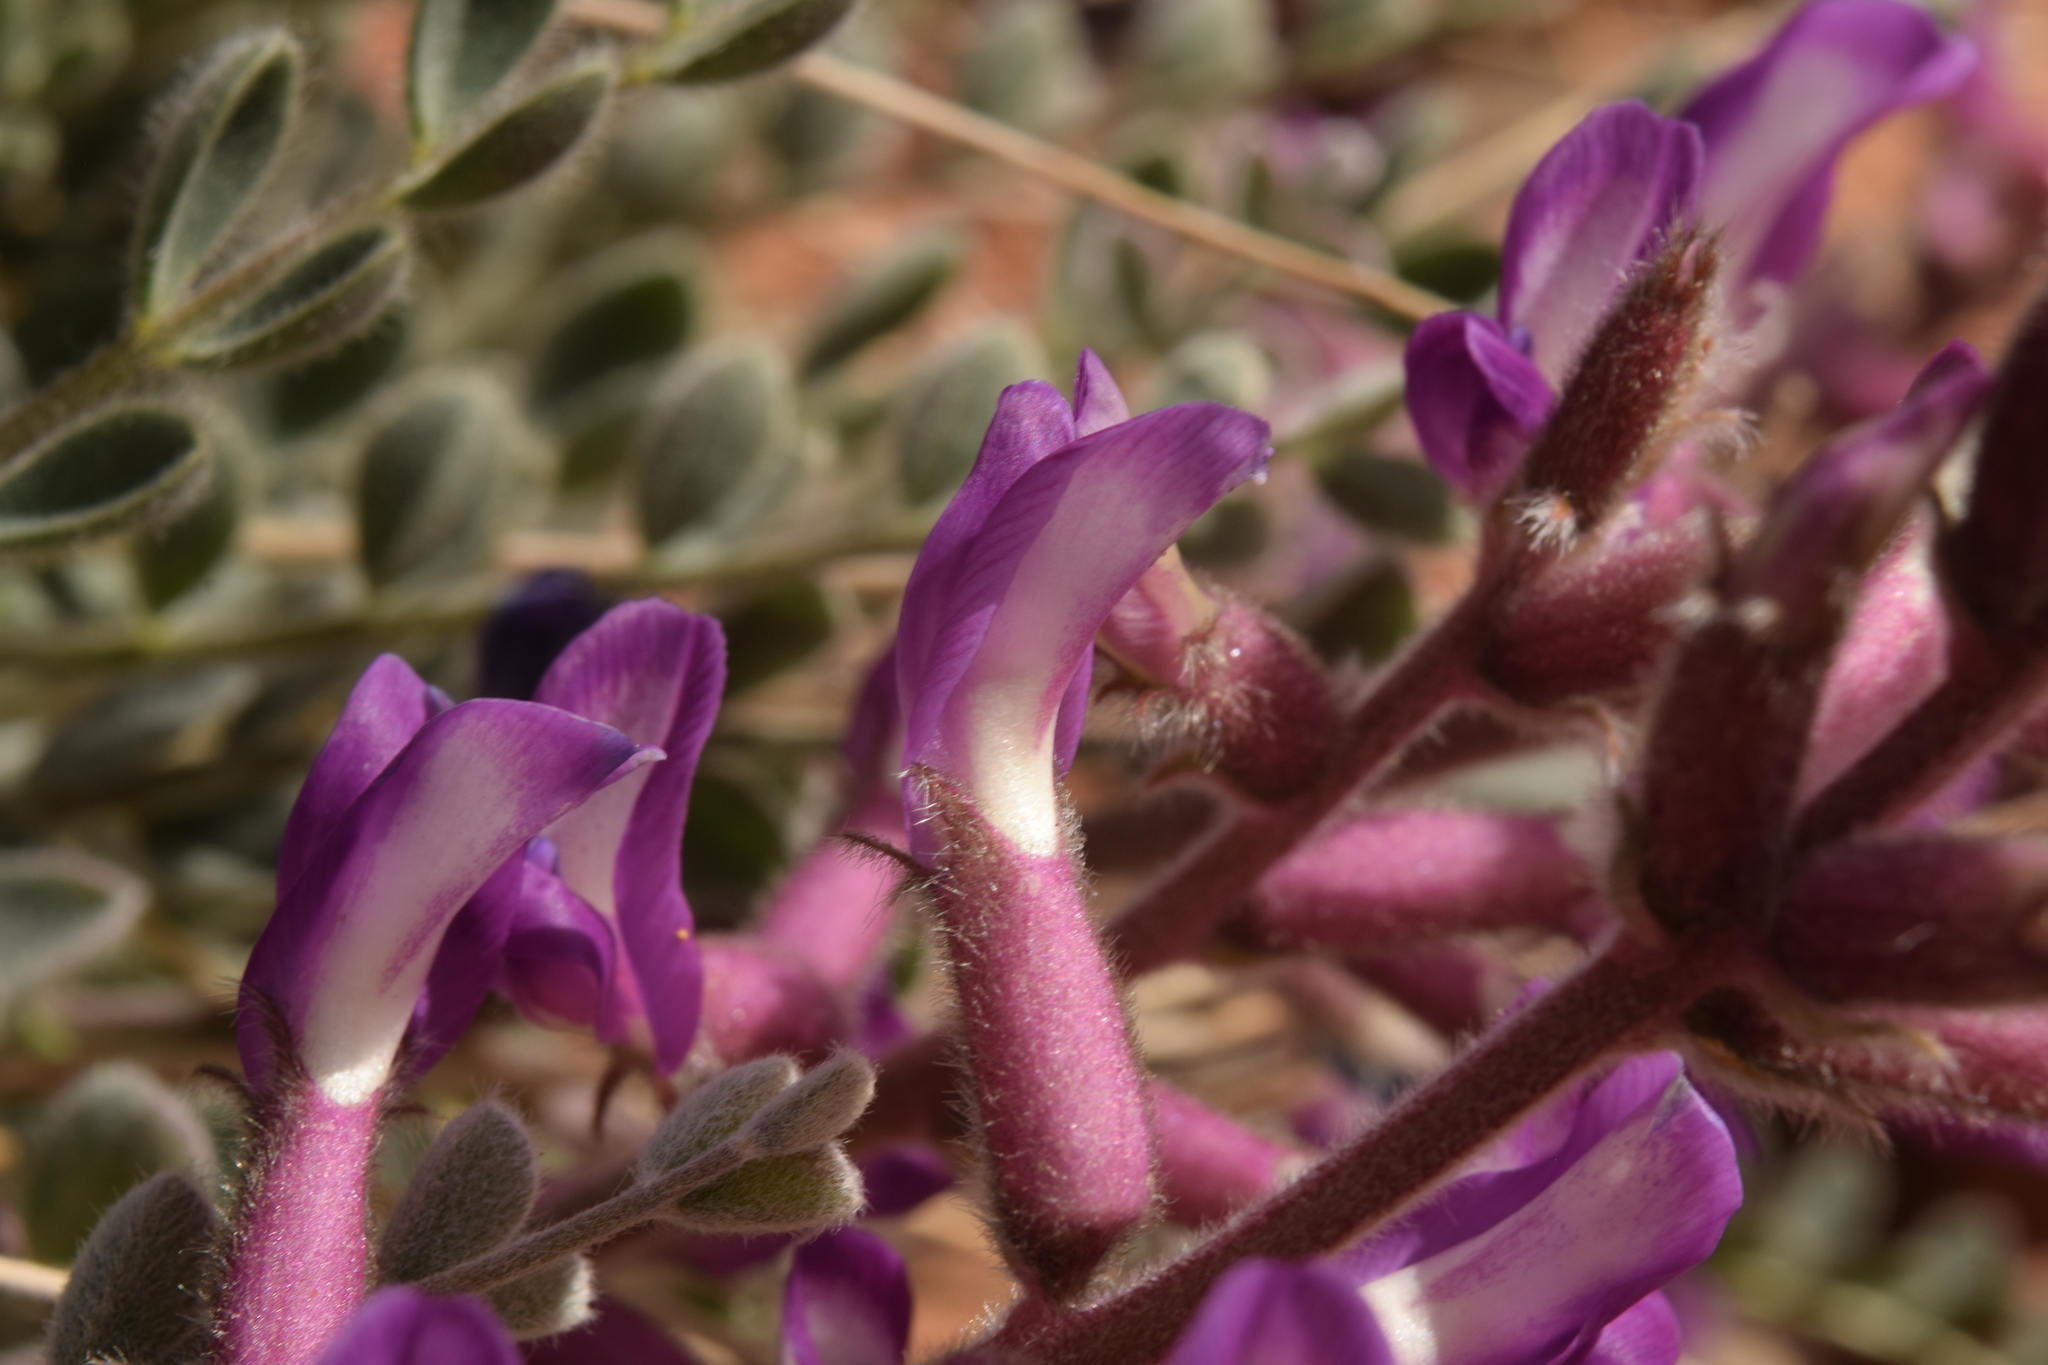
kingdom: Plantae
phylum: Tracheophyta
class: Magnoliopsida
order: Fabales
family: Fabaceae
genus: Astragalus
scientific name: Astragalus mollissimus
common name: Woolly locoweed
